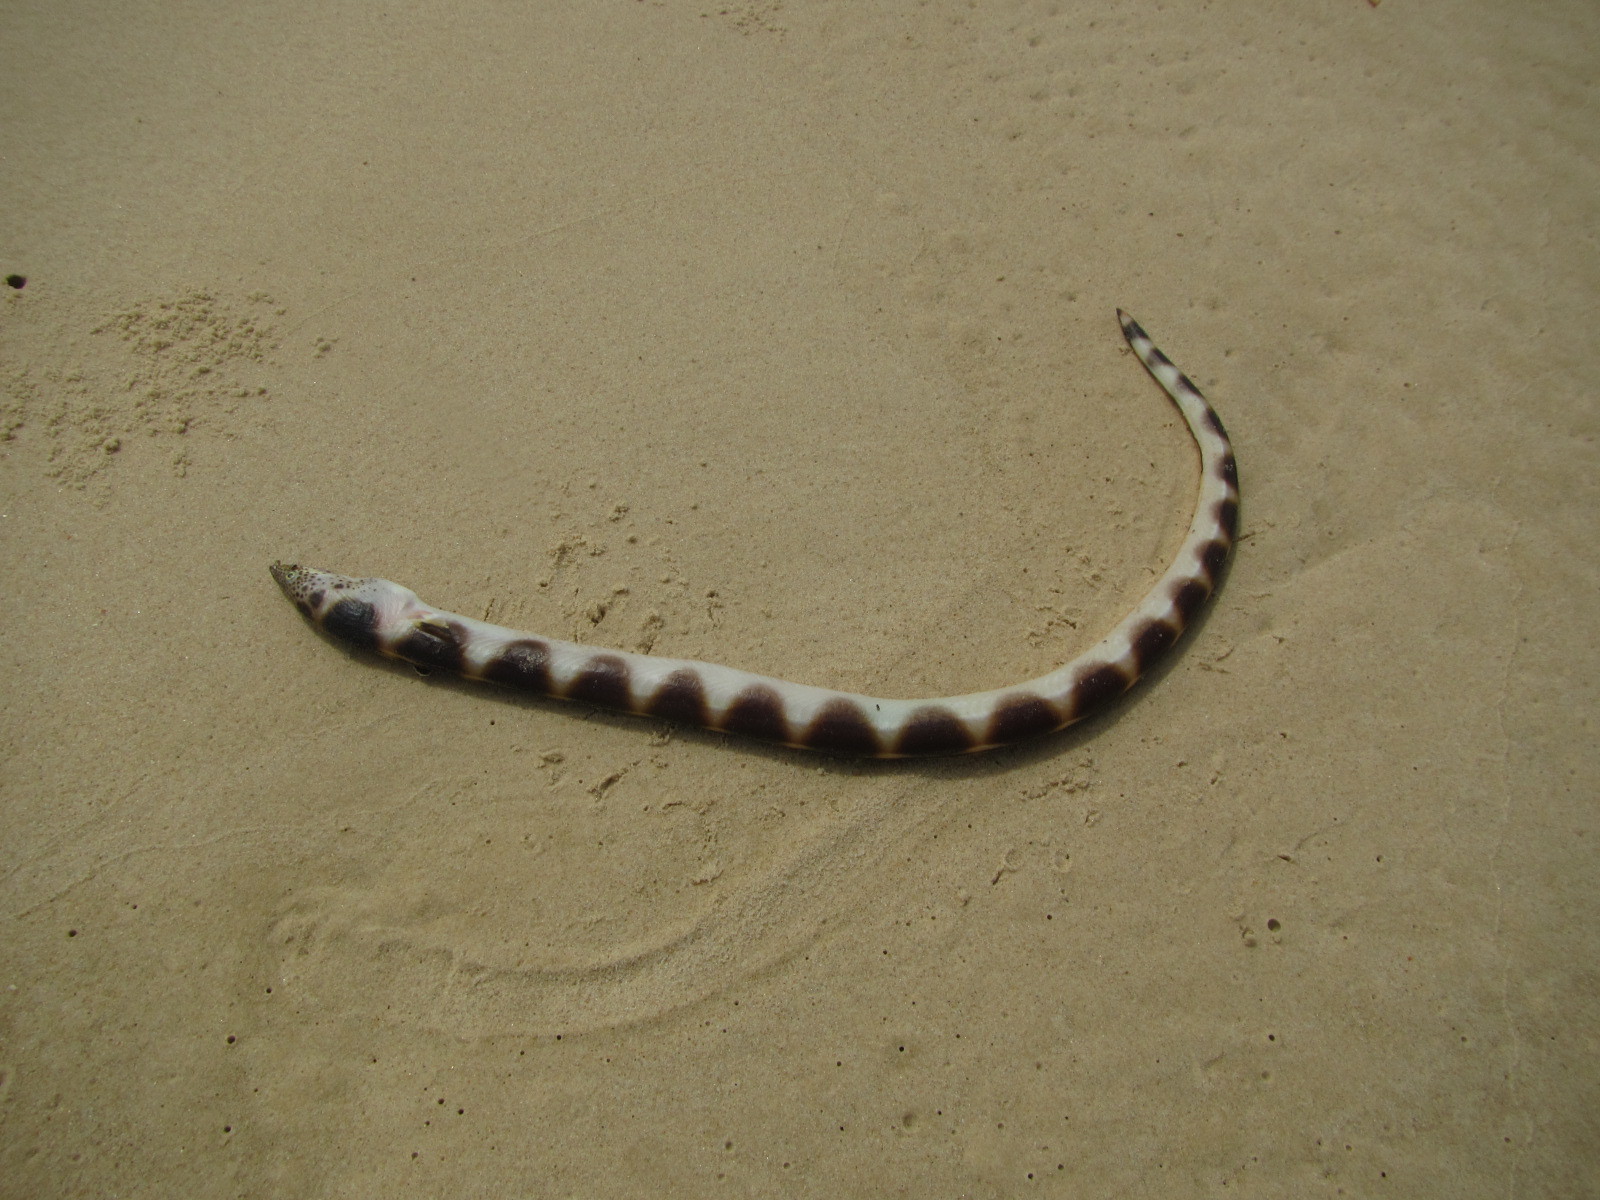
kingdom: Animalia
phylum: Chordata
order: Anguilliformes
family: Ophichthidae
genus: Pisodonophis
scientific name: Pisodonophis semicinctus
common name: Saddled snake eel
